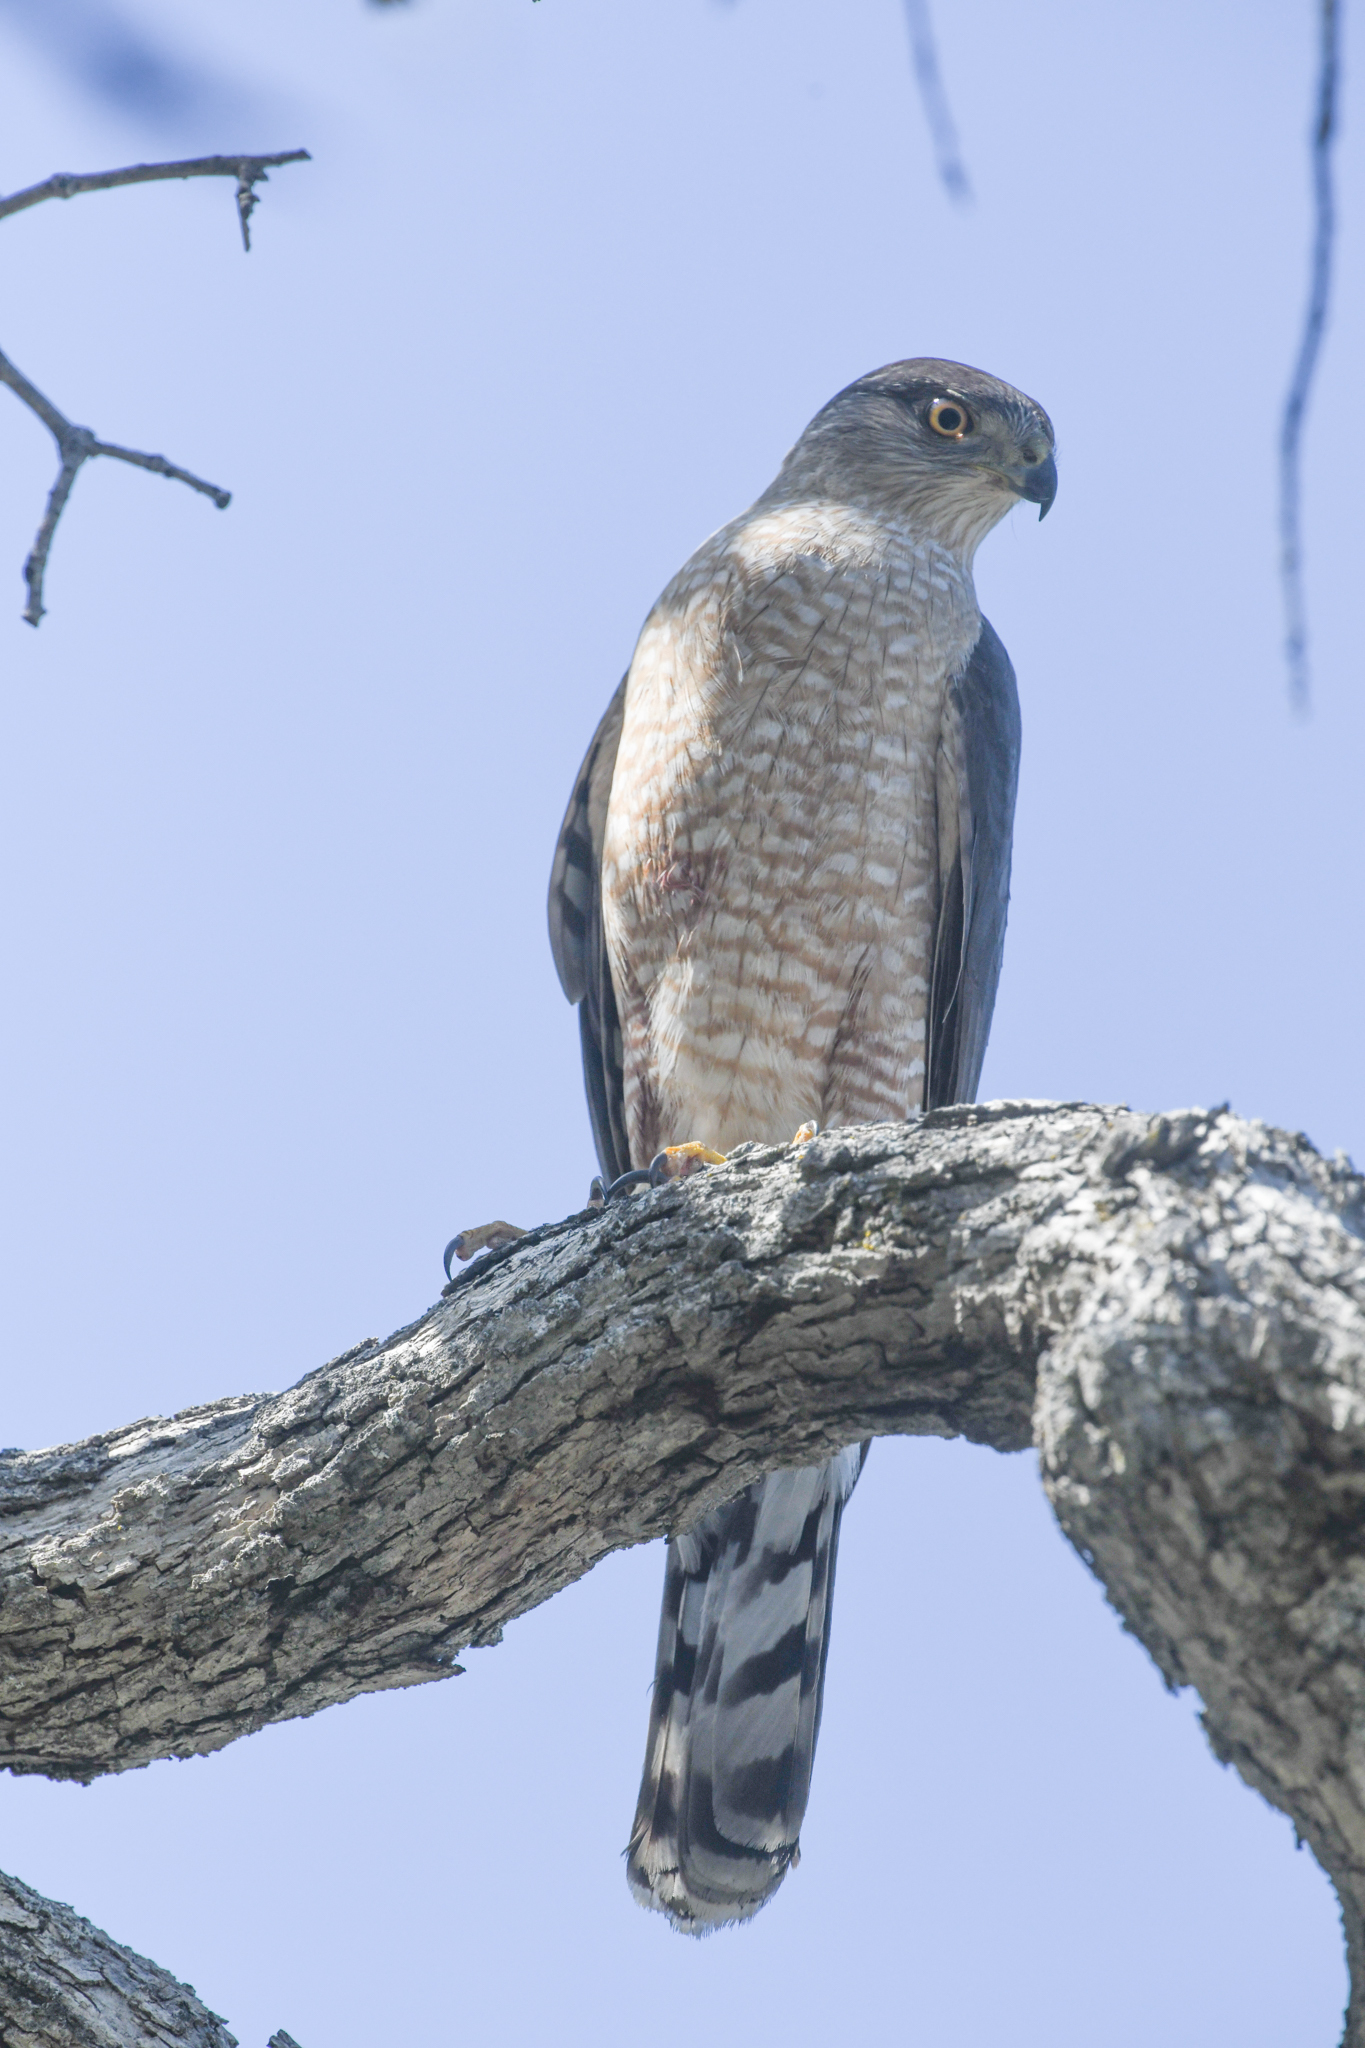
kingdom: Animalia
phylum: Chordata
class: Aves
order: Accipitriformes
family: Accipitridae
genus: Accipiter
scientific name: Accipiter cooperii
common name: Cooper's hawk
